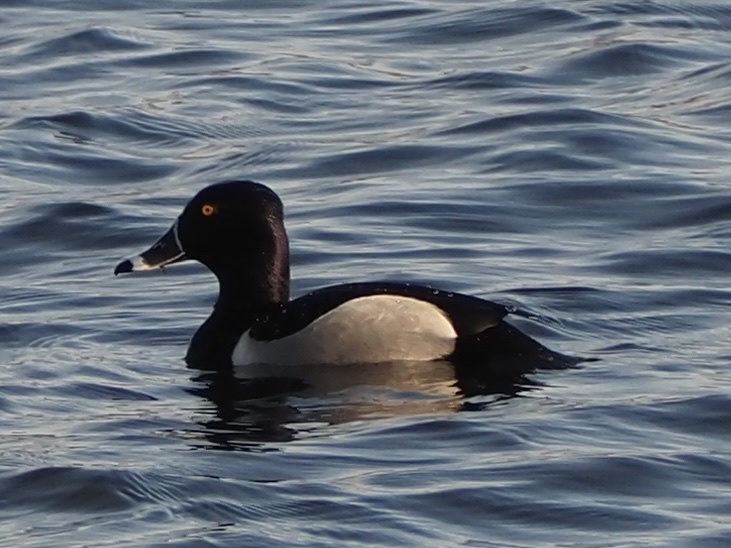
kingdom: Animalia
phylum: Chordata
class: Aves
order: Anseriformes
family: Anatidae
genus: Aythya
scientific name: Aythya collaris
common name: Ring-necked duck
